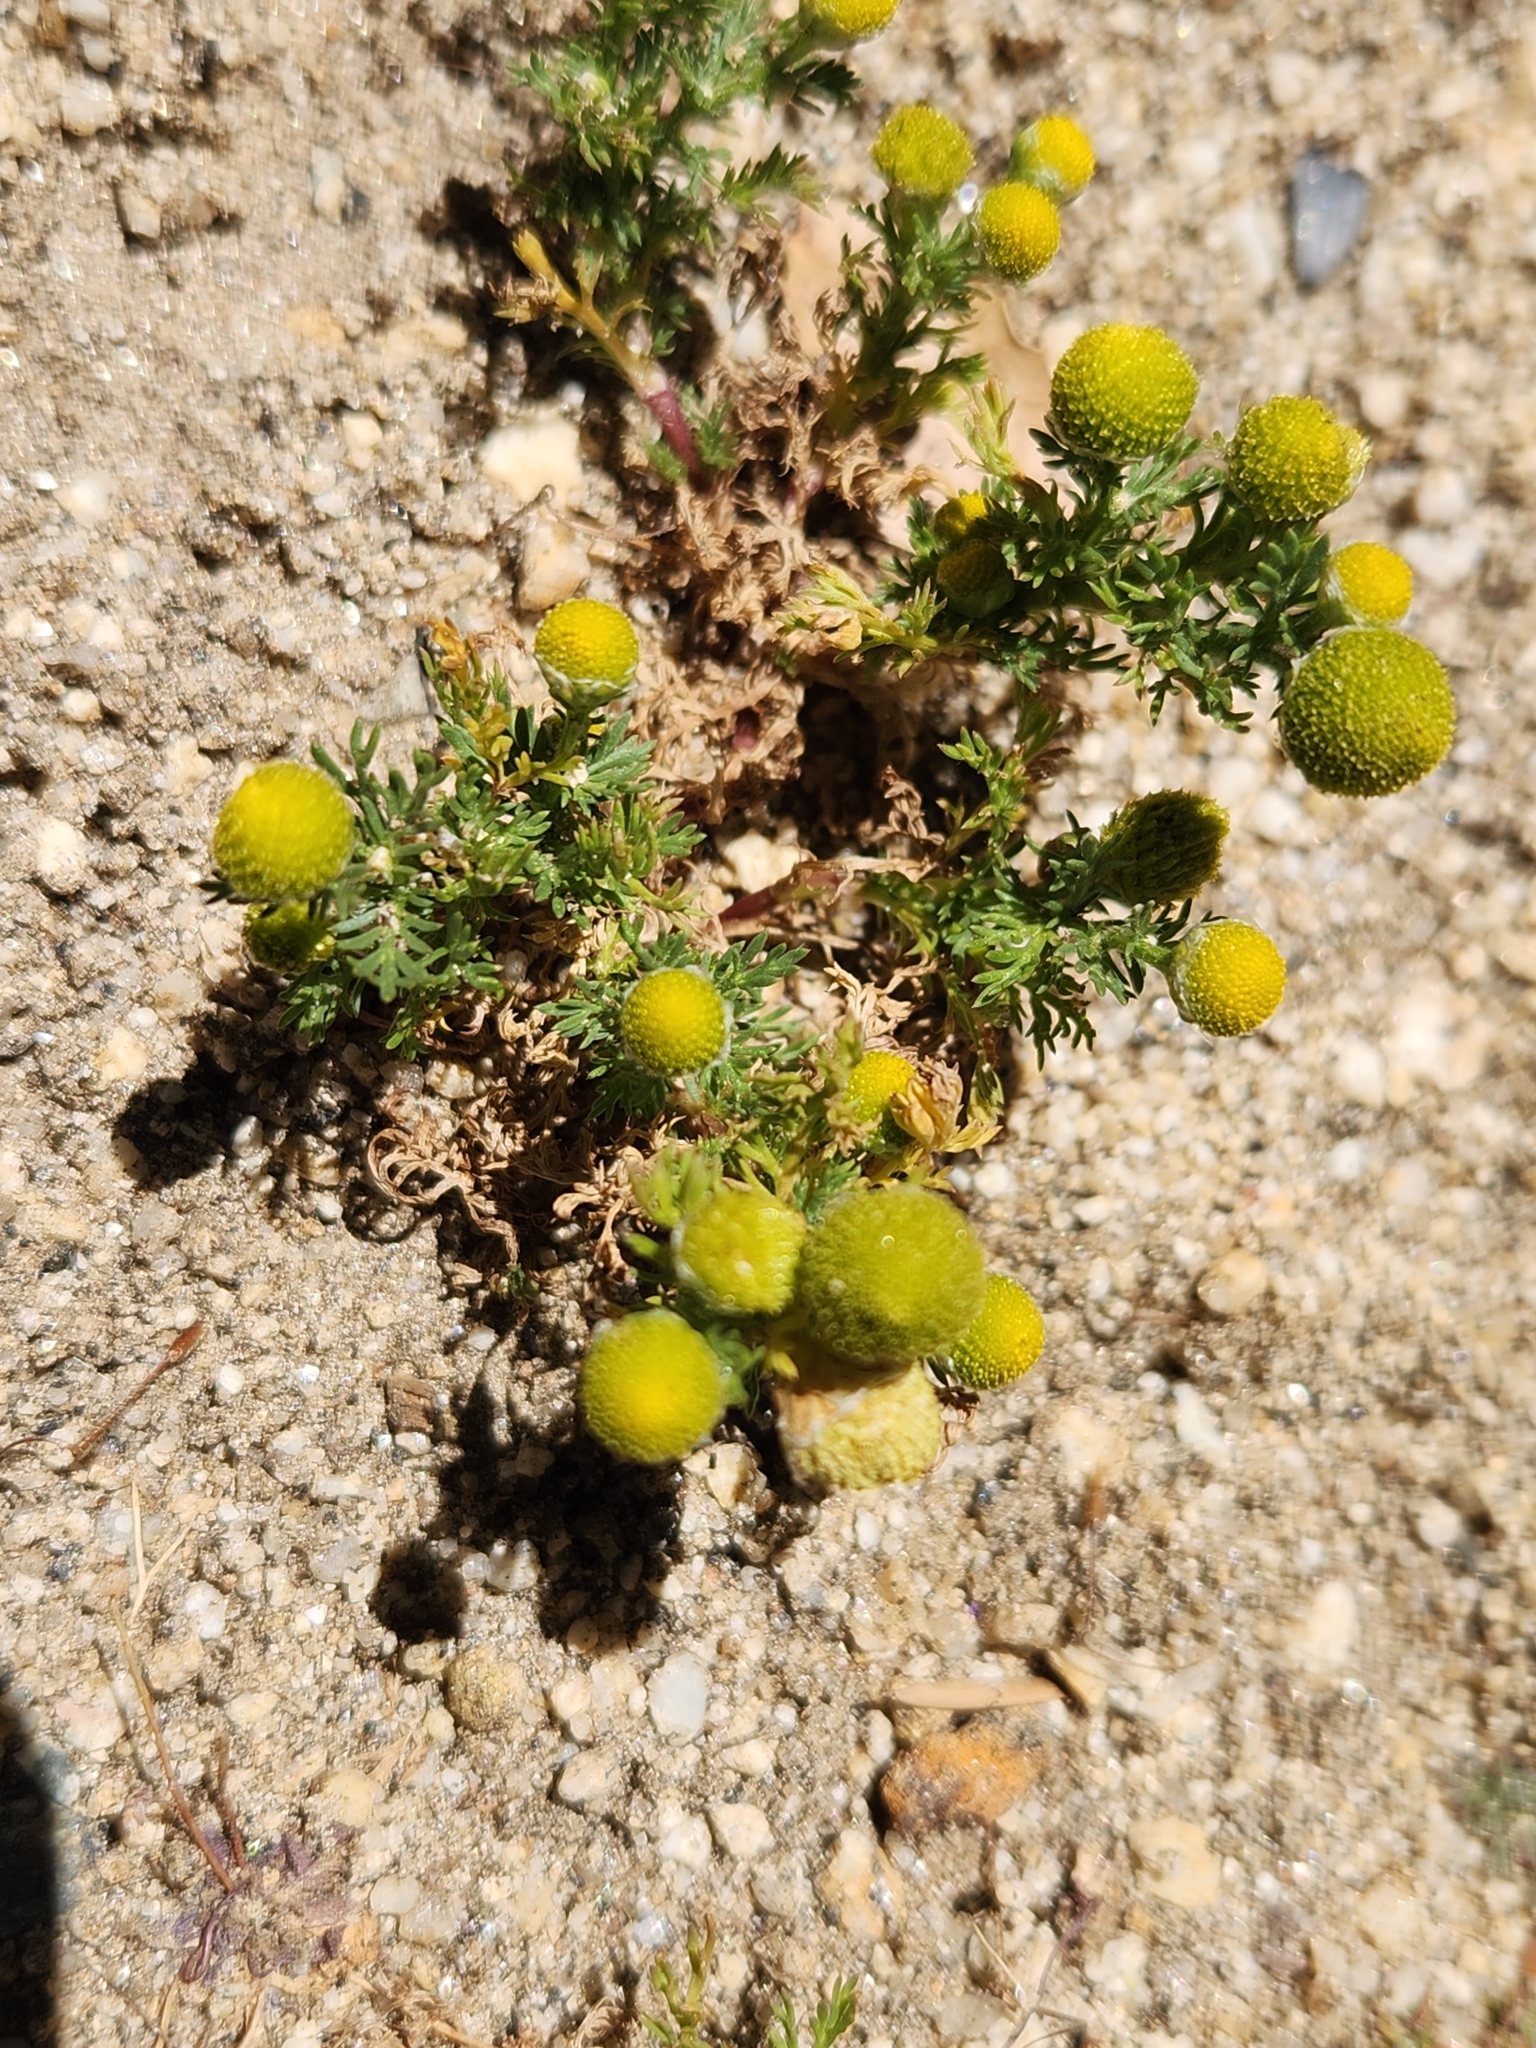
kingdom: Plantae
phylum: Tracheophyta
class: Magnoliopsida
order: Asterales
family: Asteraceae
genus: Matricaria
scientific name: Matricaria discoidea
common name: Disc mayweed
